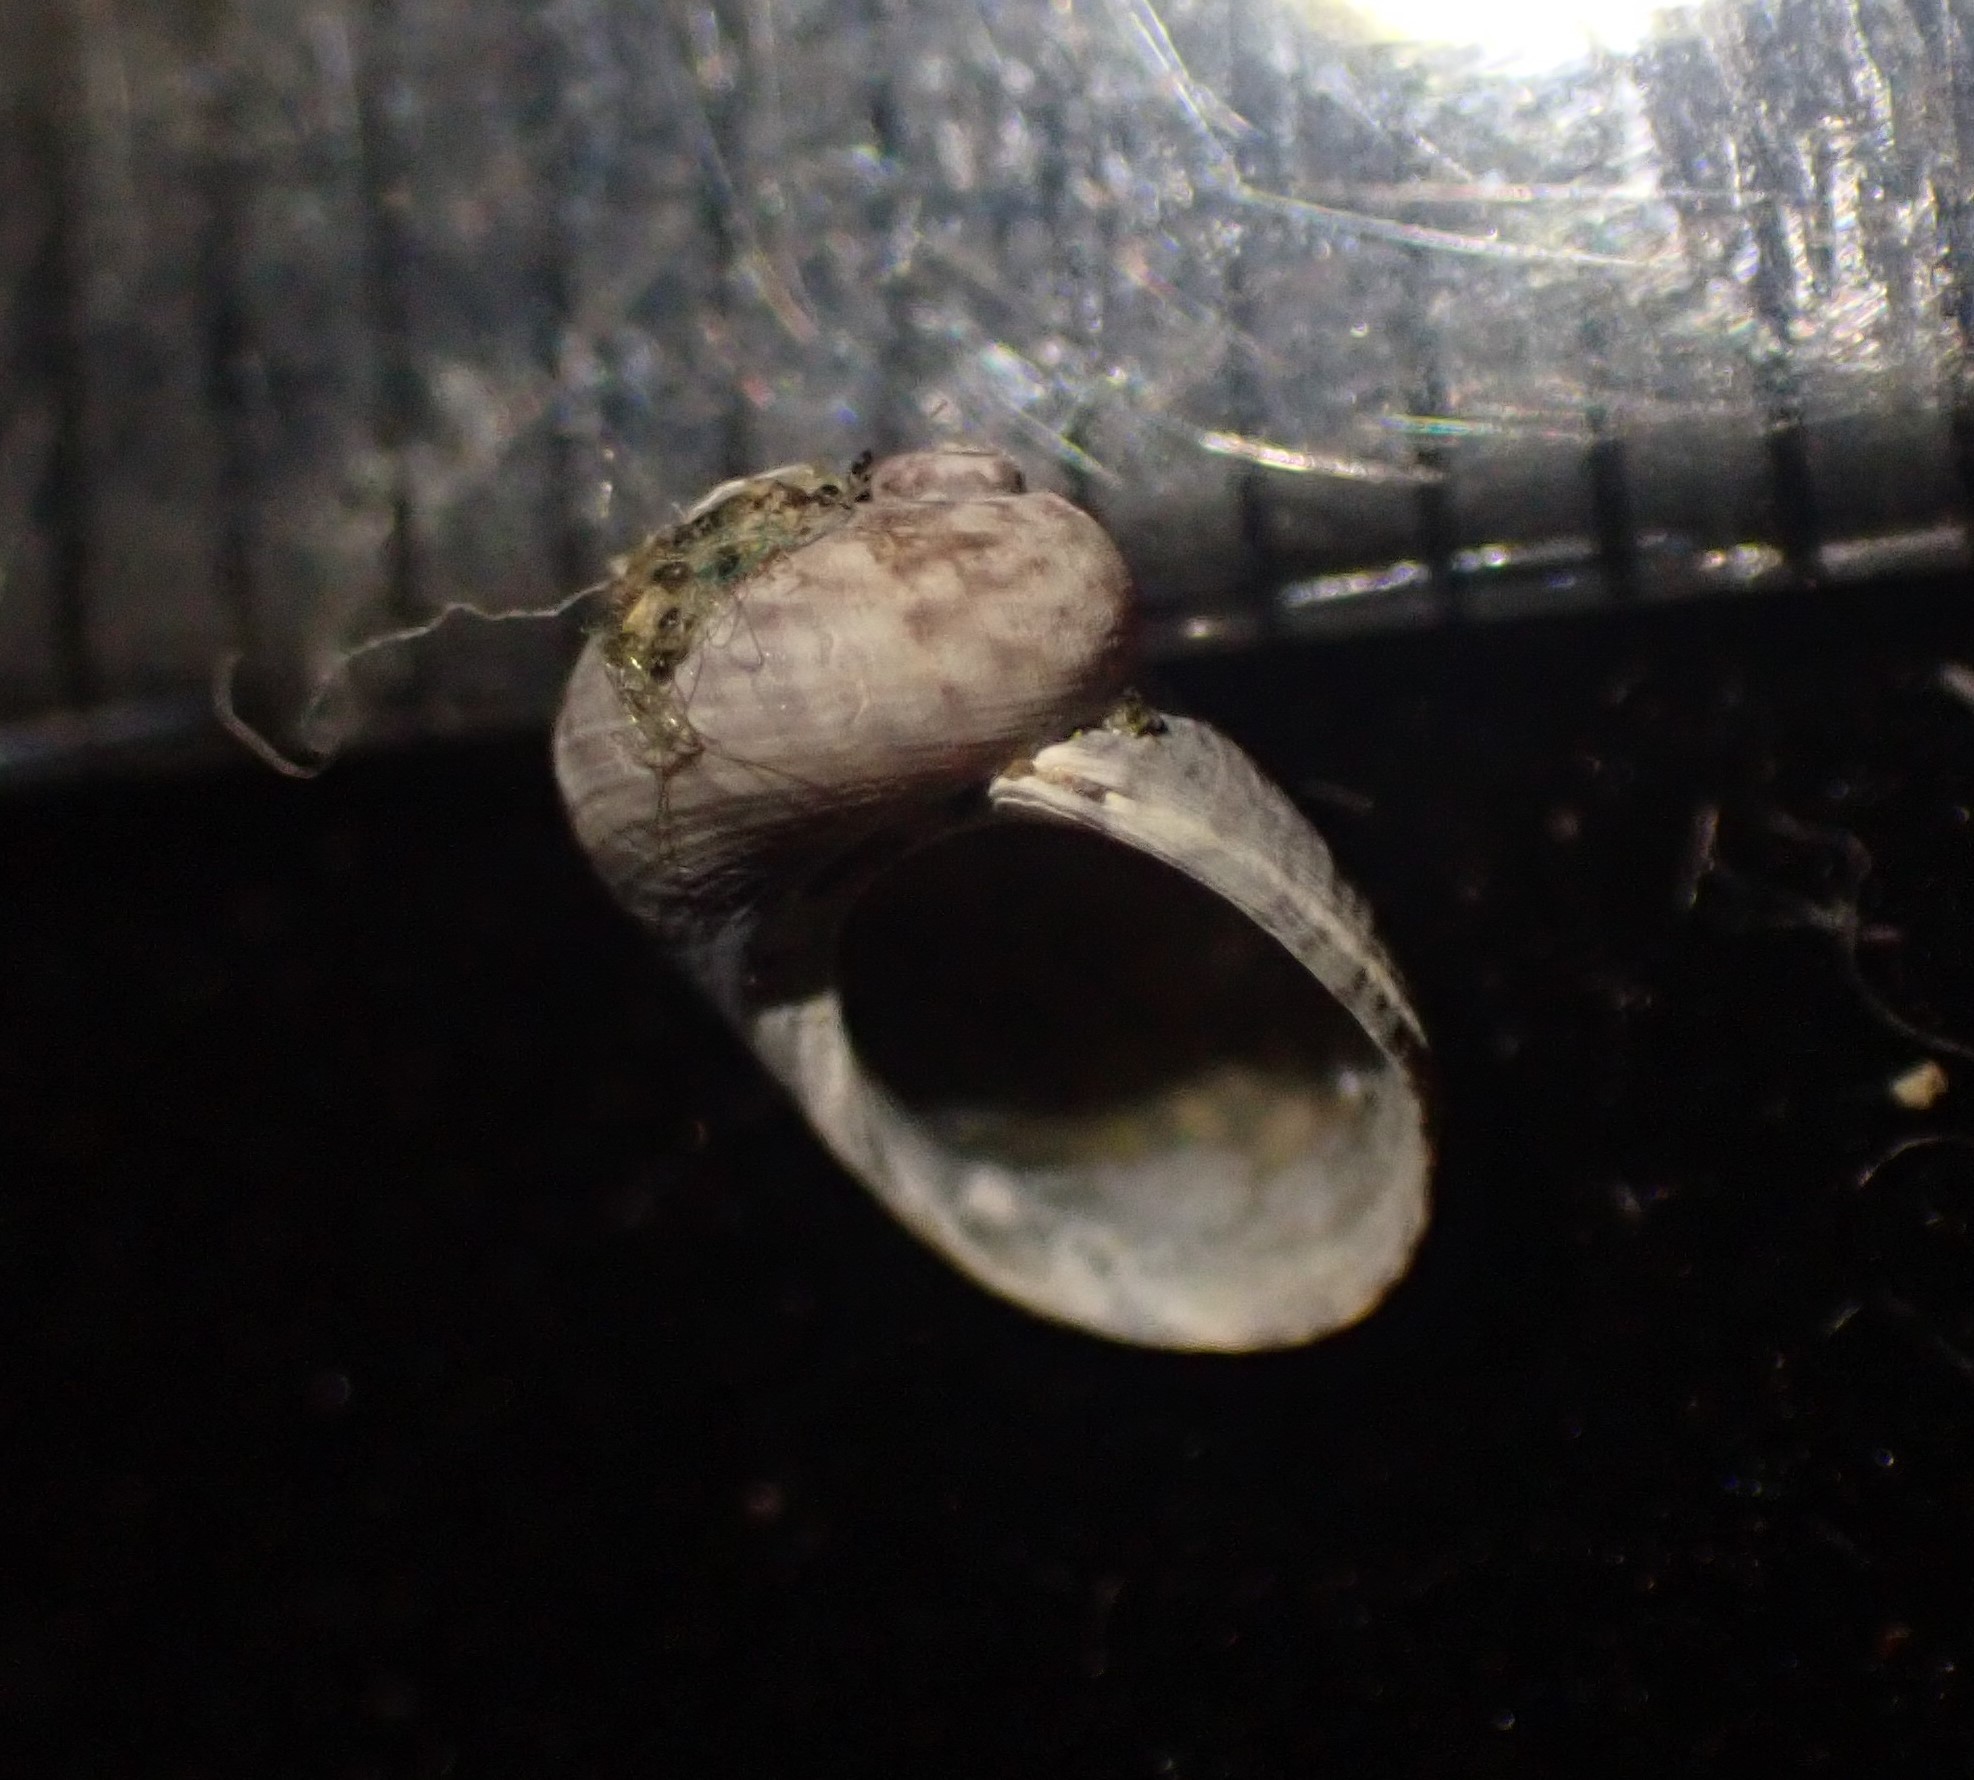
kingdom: Animalia
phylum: Mollusca
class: Gastropoda
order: Trochida
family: Trochidae
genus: Fossarina
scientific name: Fossarina rimata
